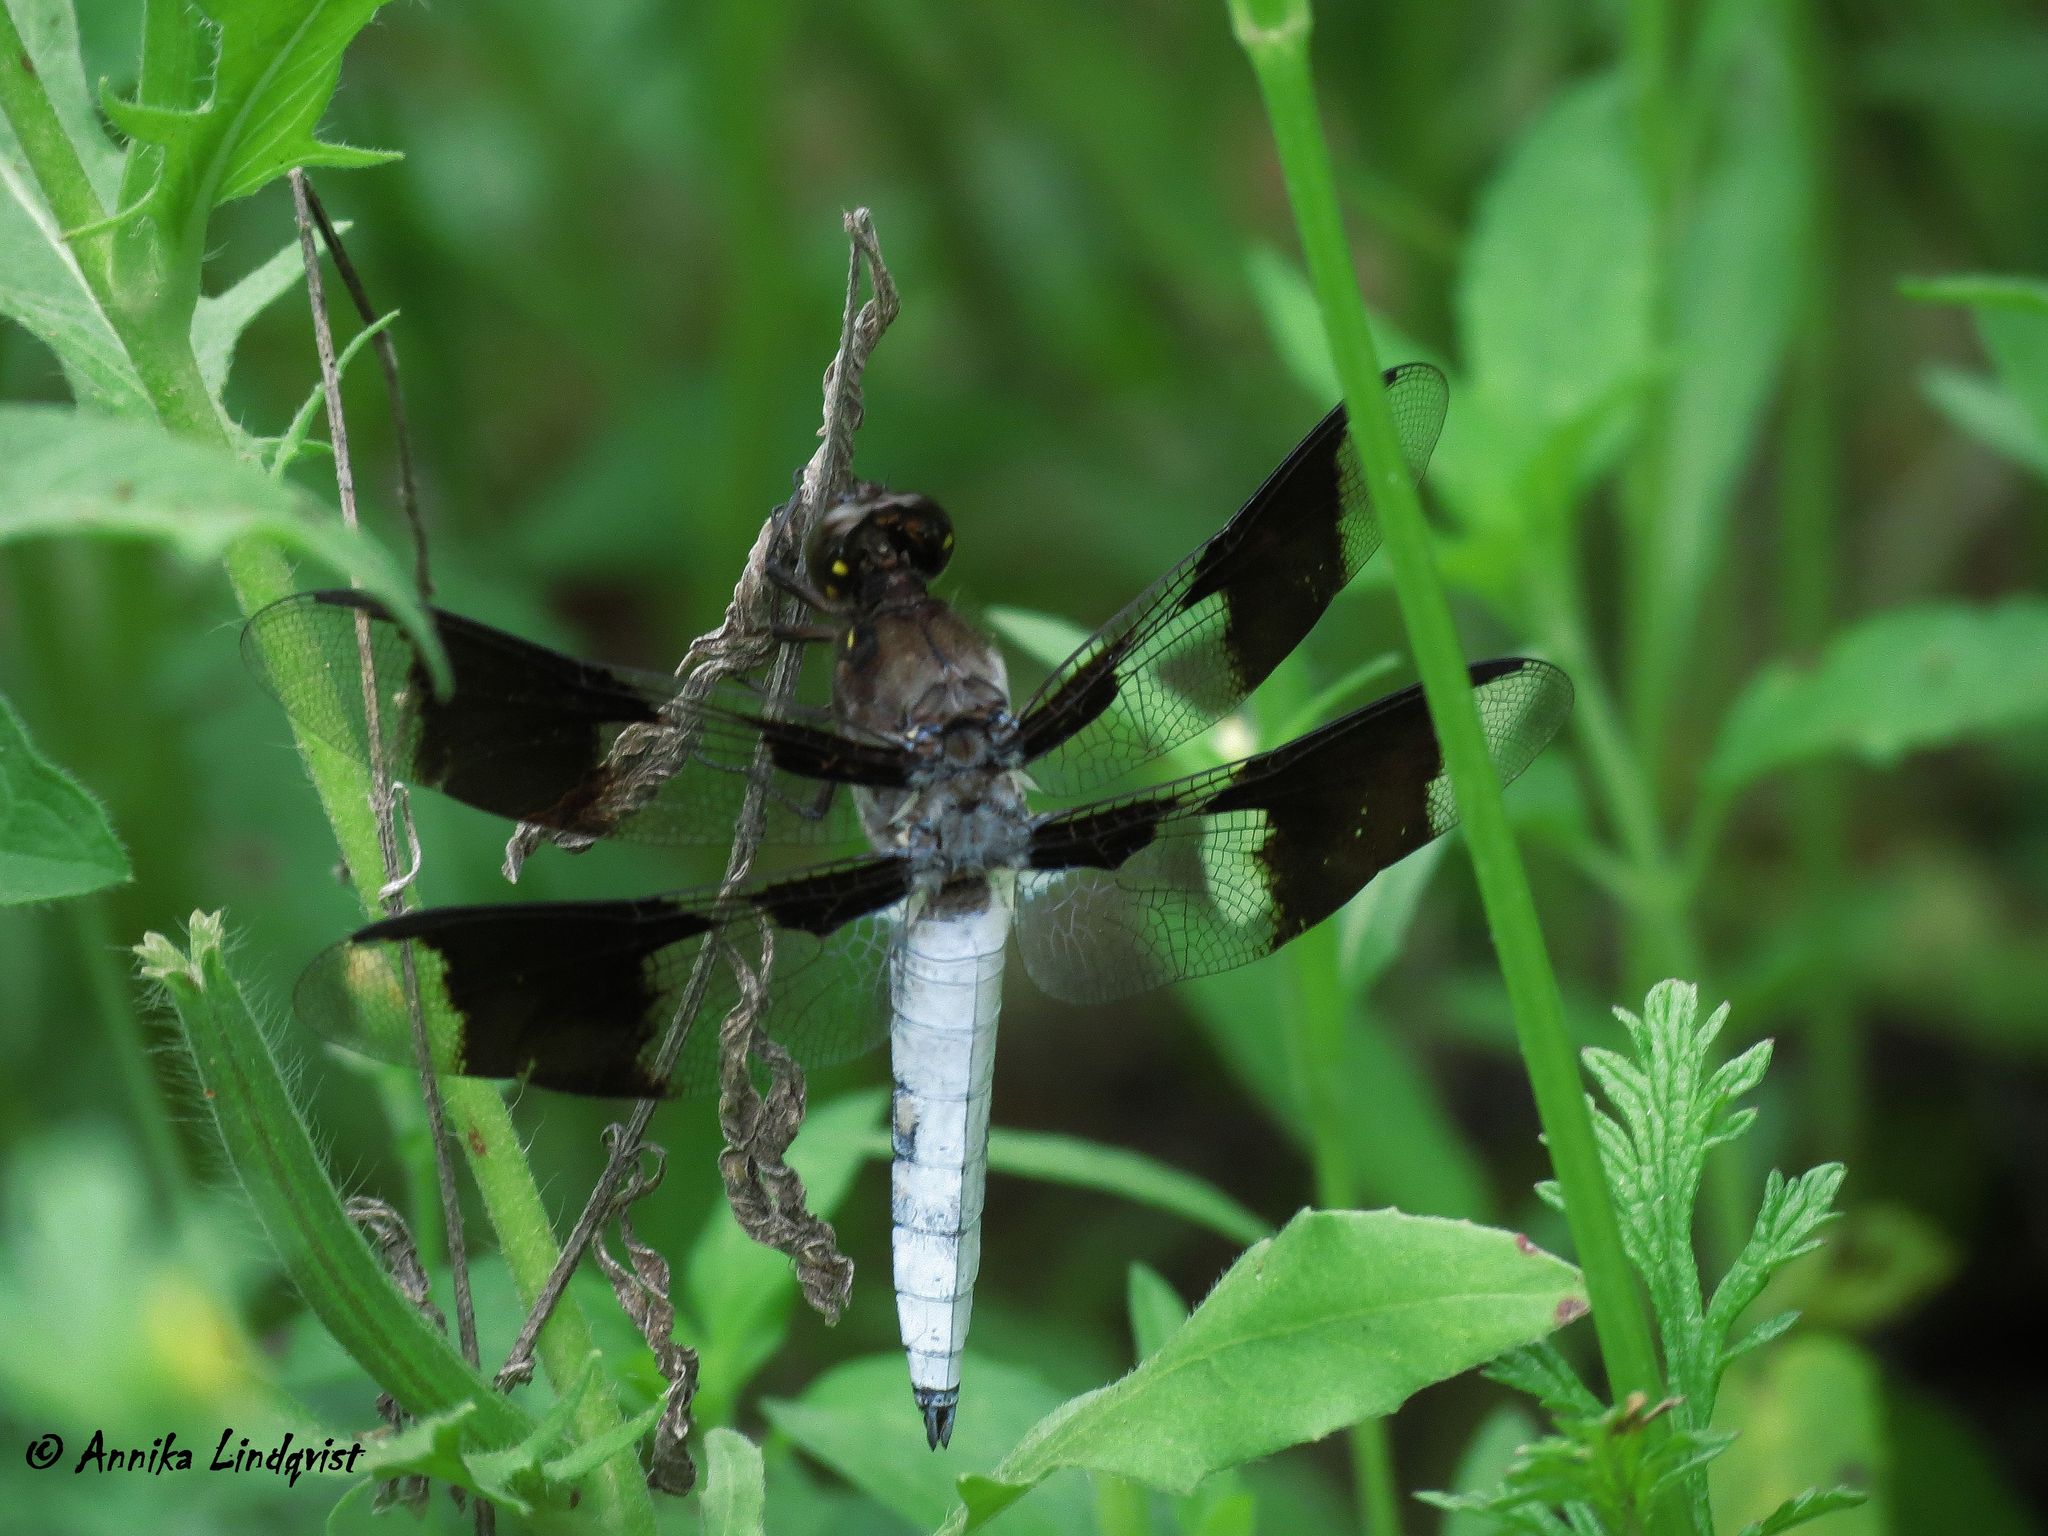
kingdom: Animalia
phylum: Arthropoda
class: Insecta
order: Odonata
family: Libellulidae
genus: Plathemis
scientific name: Plathemis lydia
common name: Common whitetail
